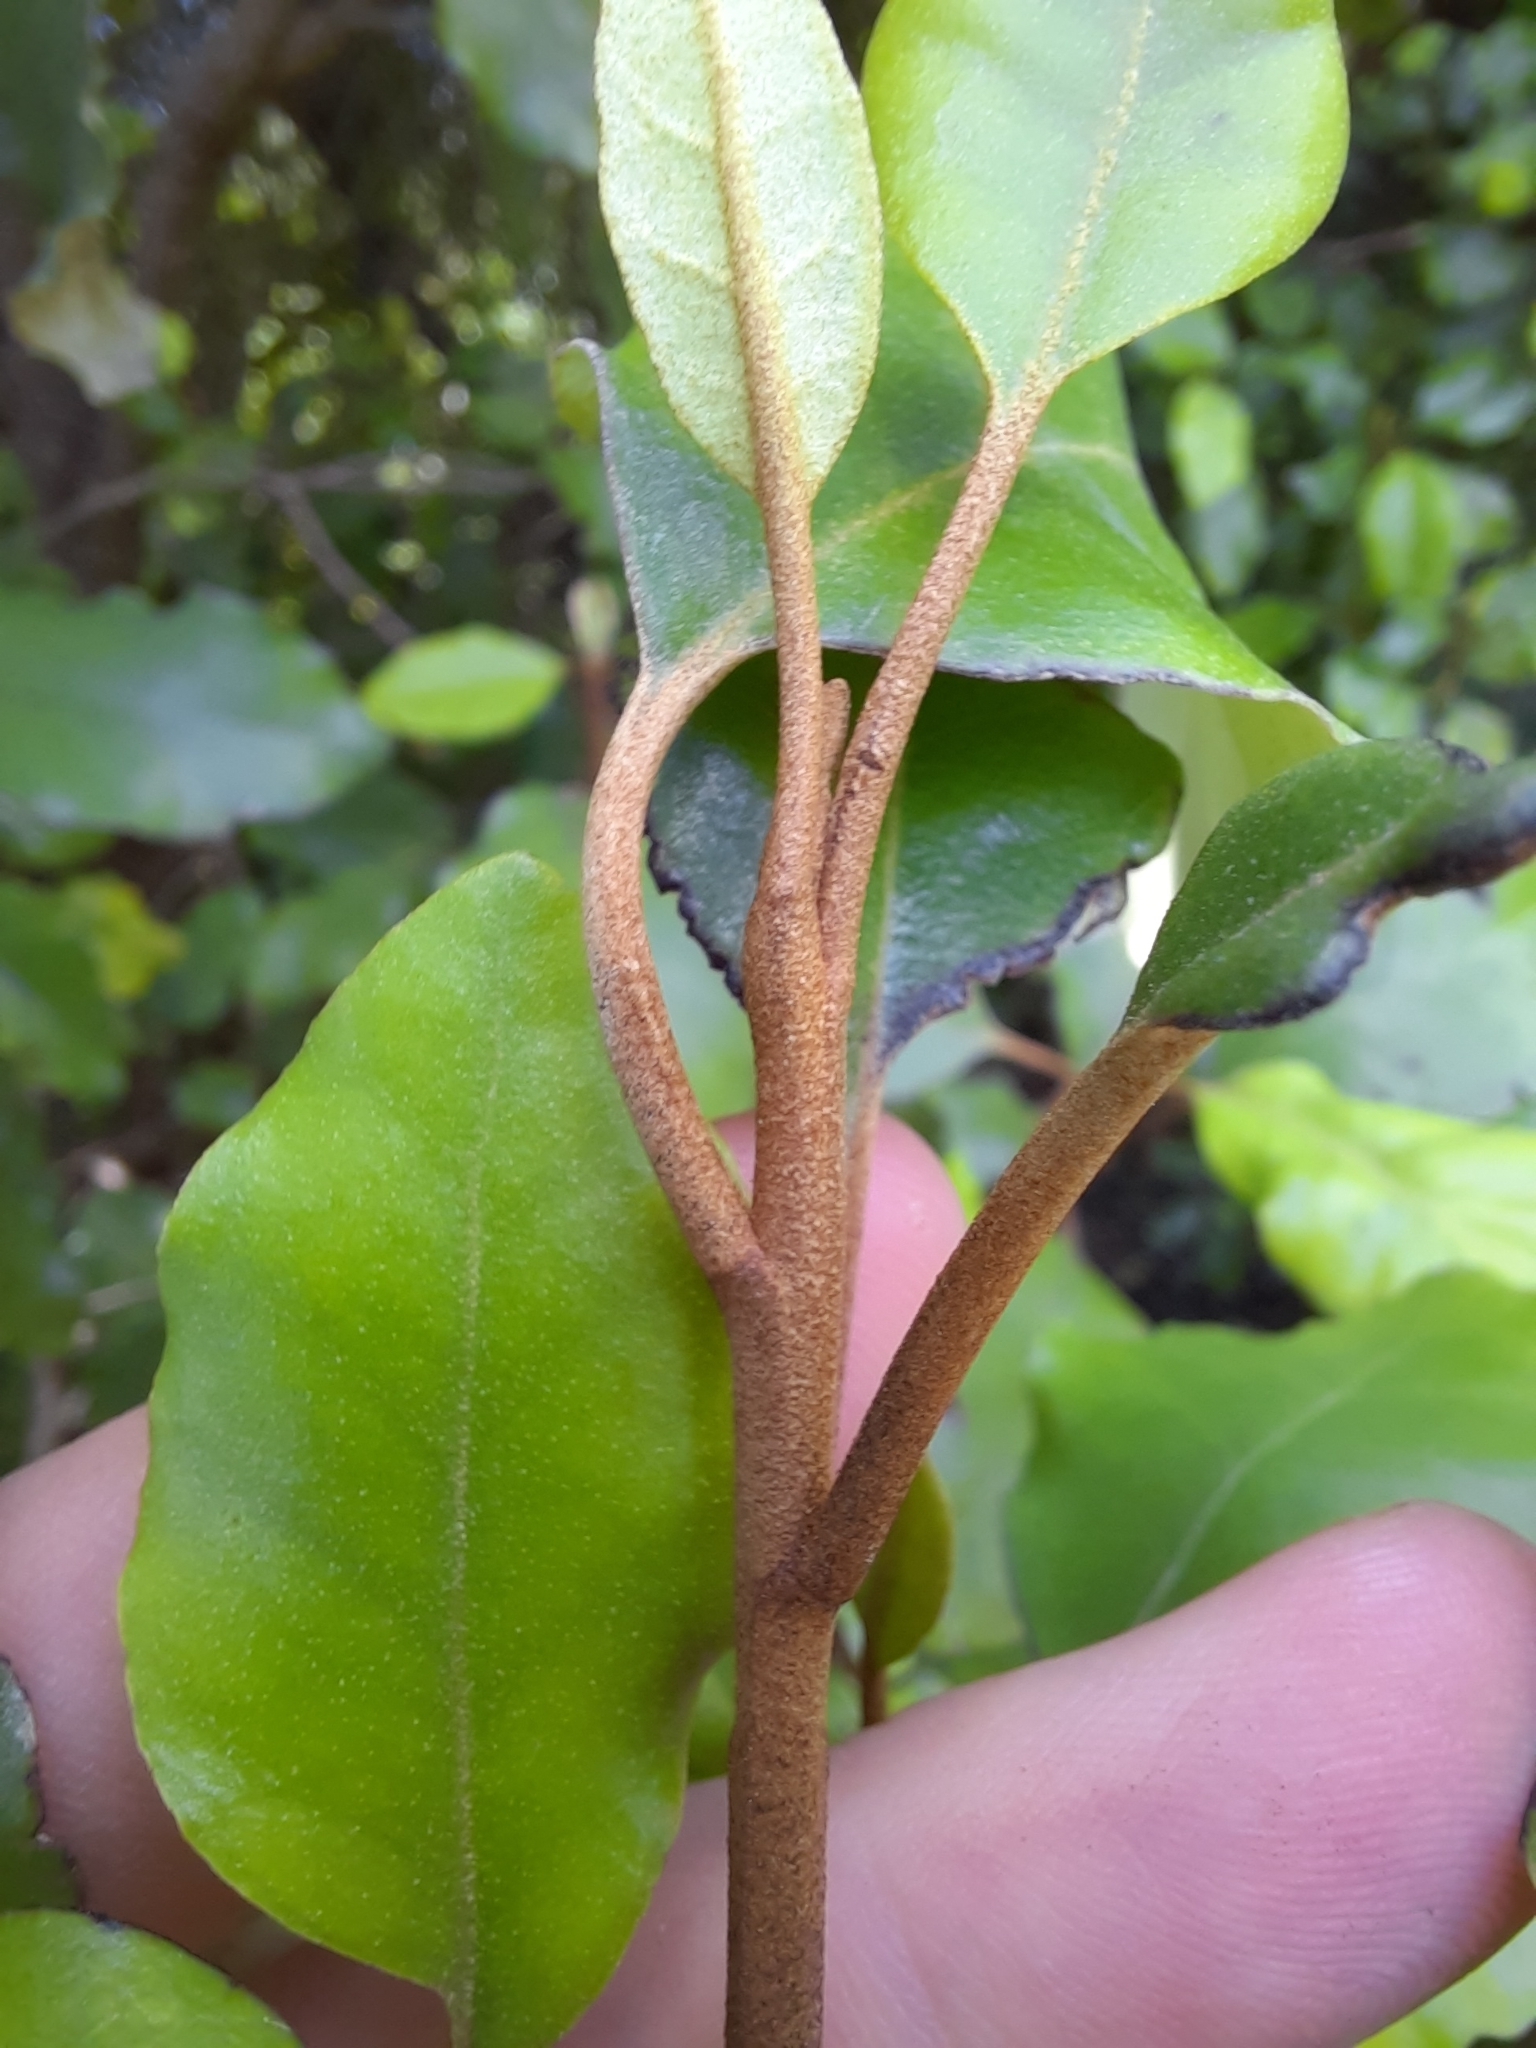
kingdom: Plantae
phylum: Tracheophyta
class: Magnoliopsida
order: Asterales
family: Asteraceae
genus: Olearia
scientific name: Olearia paniculata
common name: Akiraho
